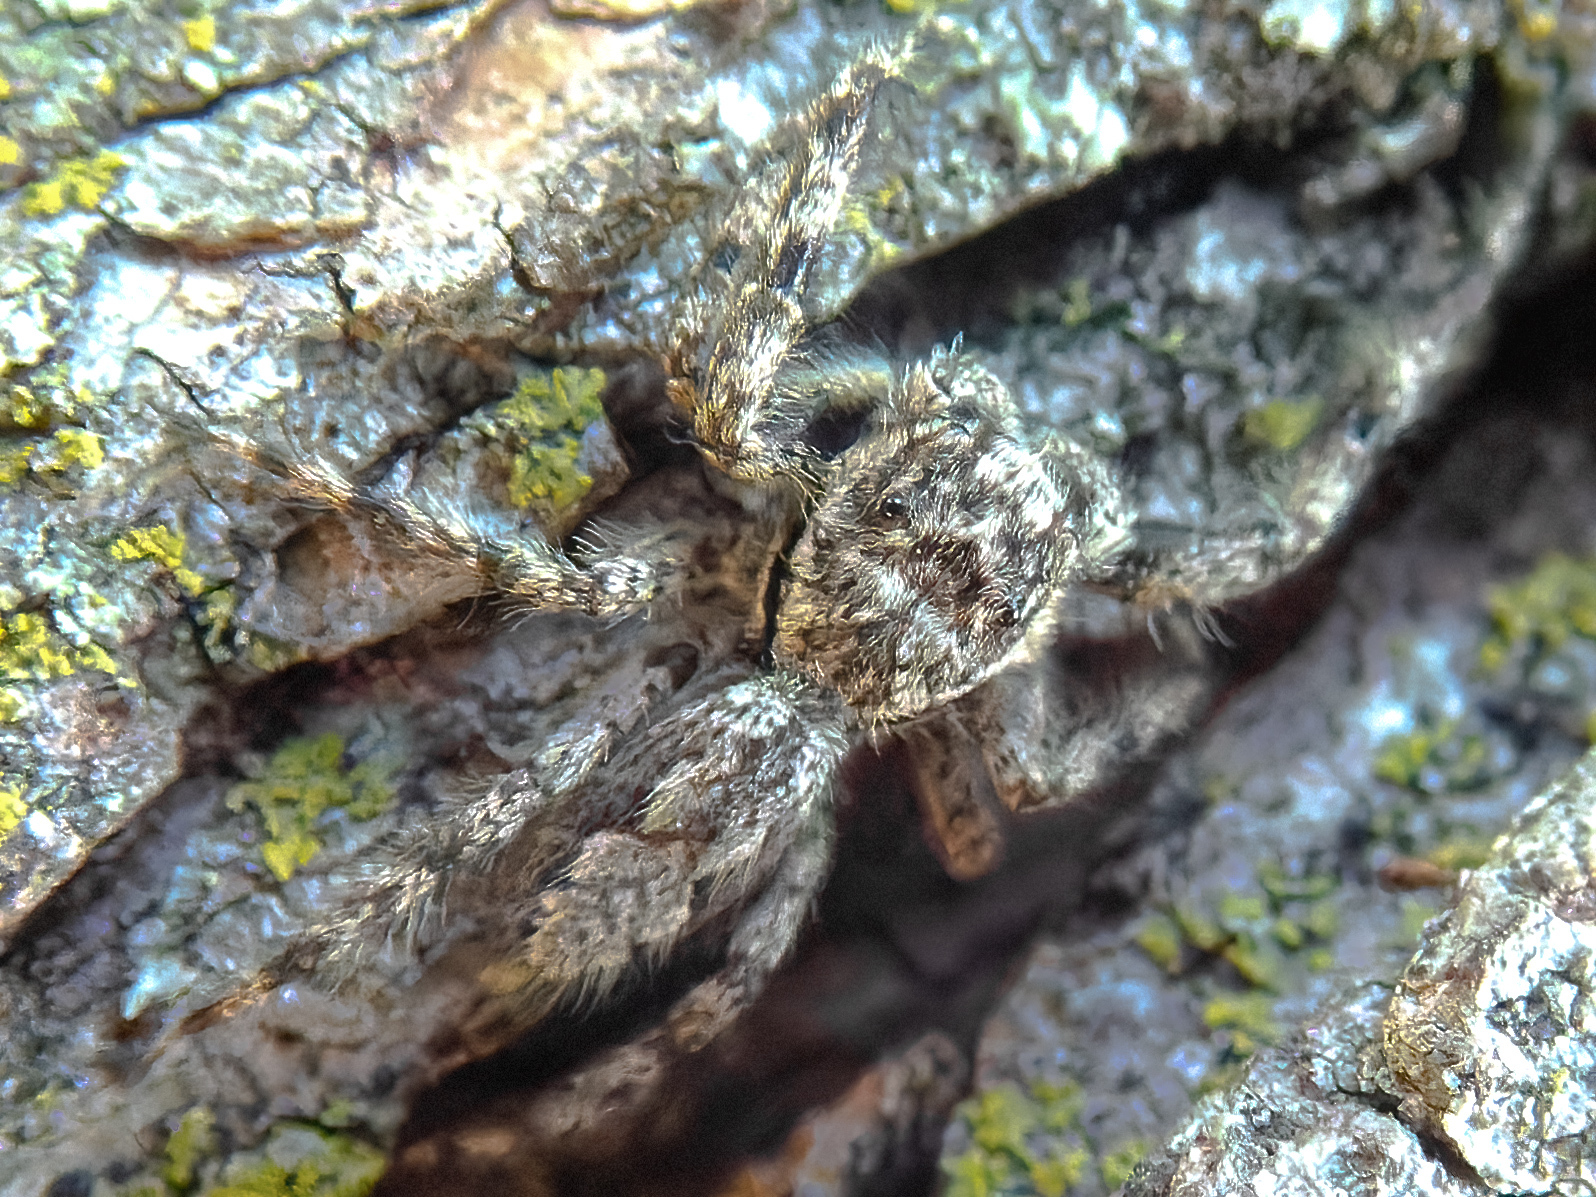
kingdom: Animalia
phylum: Arthropoda
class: Arachnida
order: Araneae
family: Salticidae
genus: Platycryptus
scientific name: Platycryptus undatus
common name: Tan jumping spider
